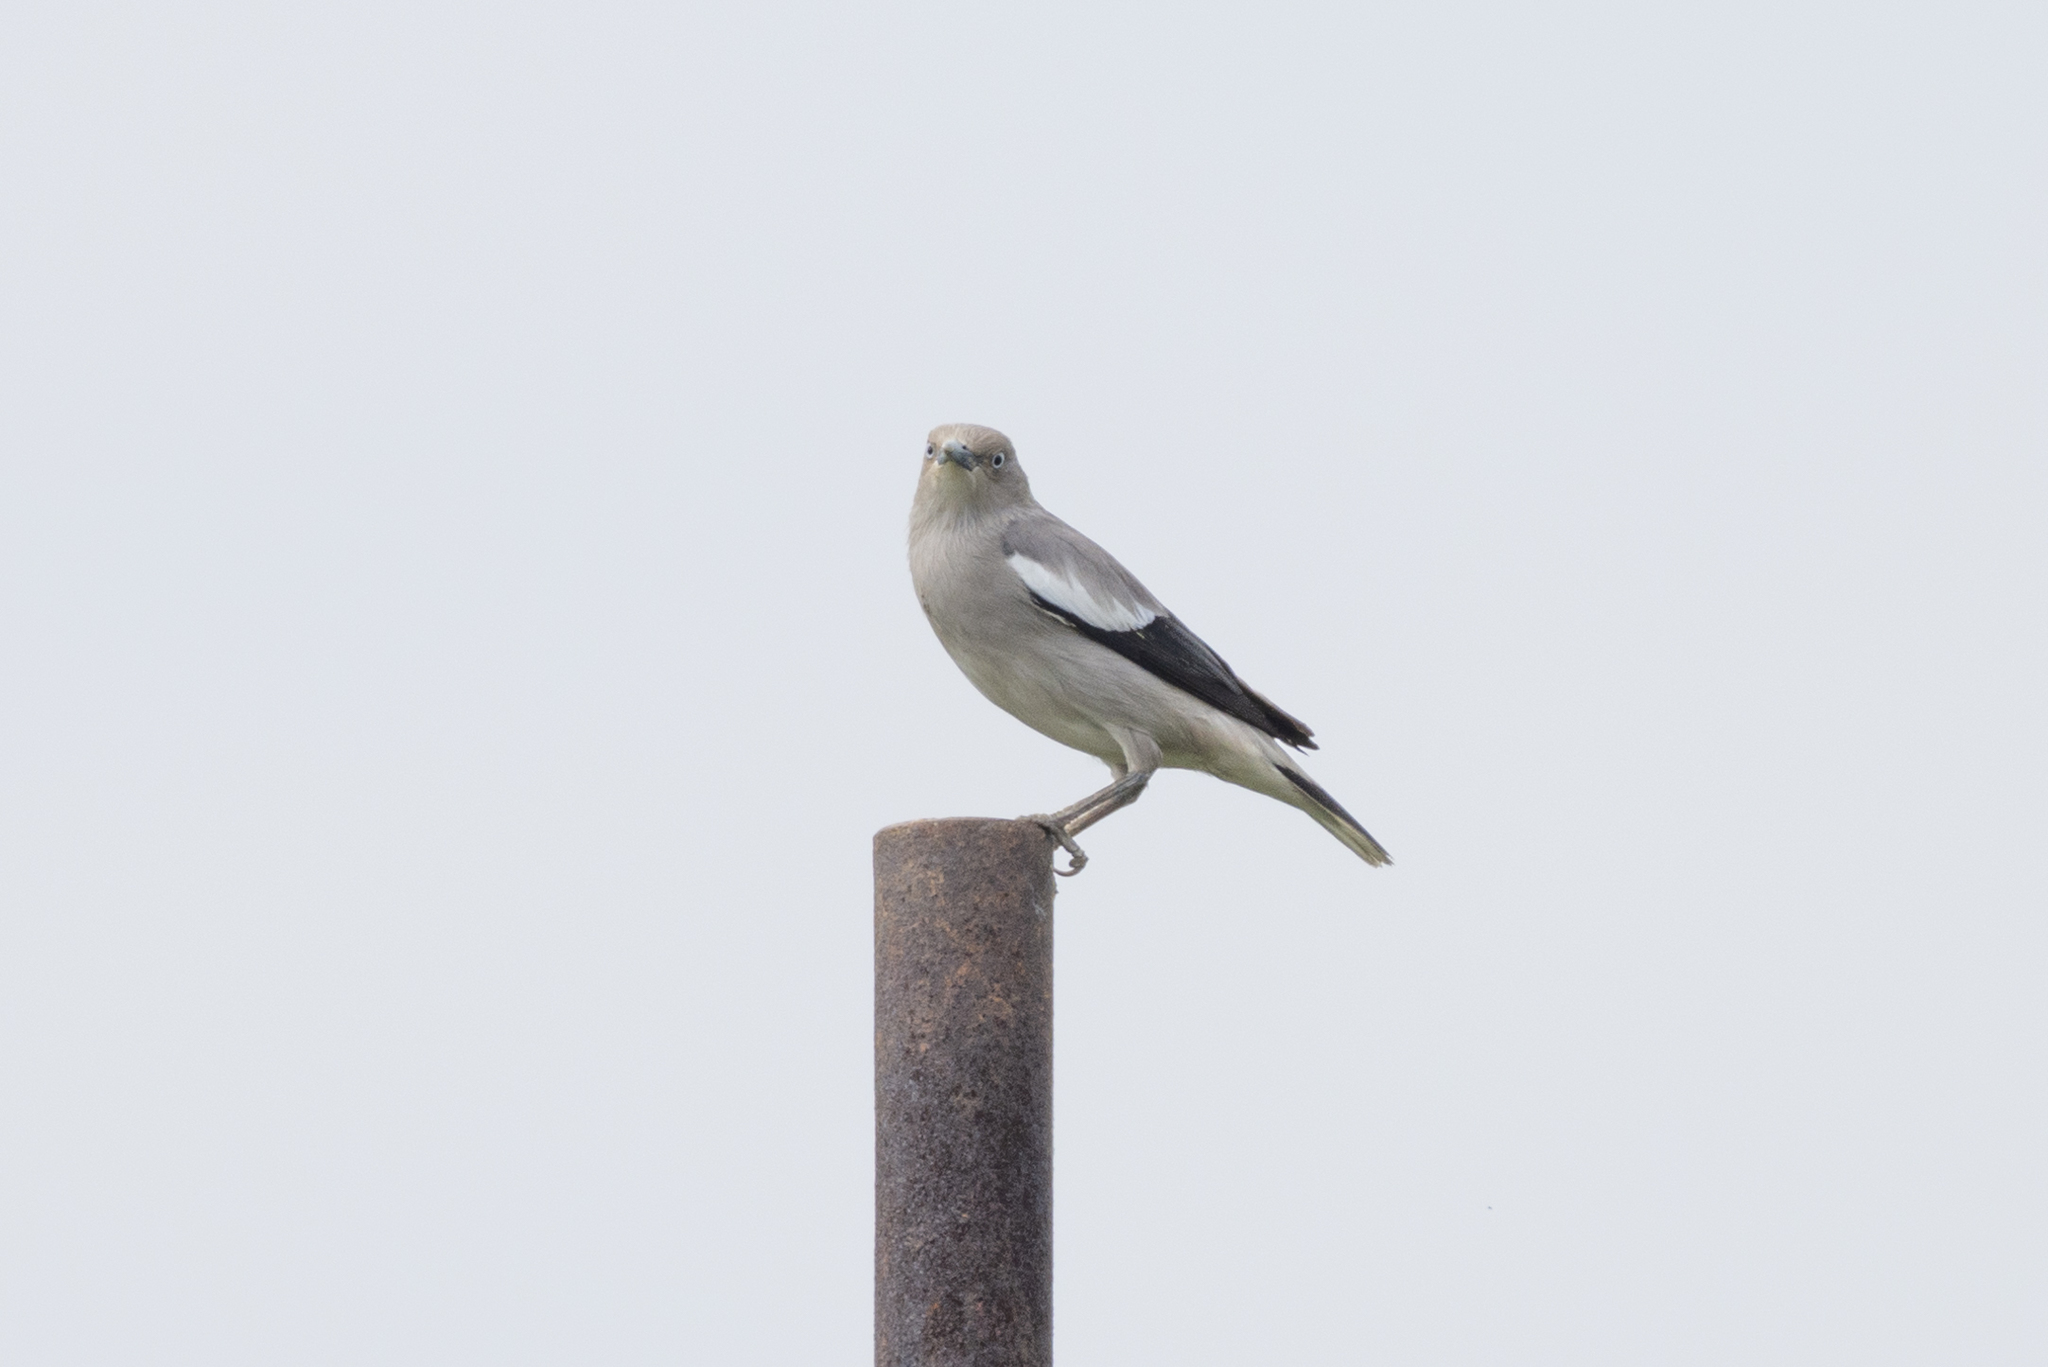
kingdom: Animalia
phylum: Chordata
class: Aves
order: Passeriformes
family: Sturnidae
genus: Sturnia
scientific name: Sturnia sinensis
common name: White-shouldered starling
